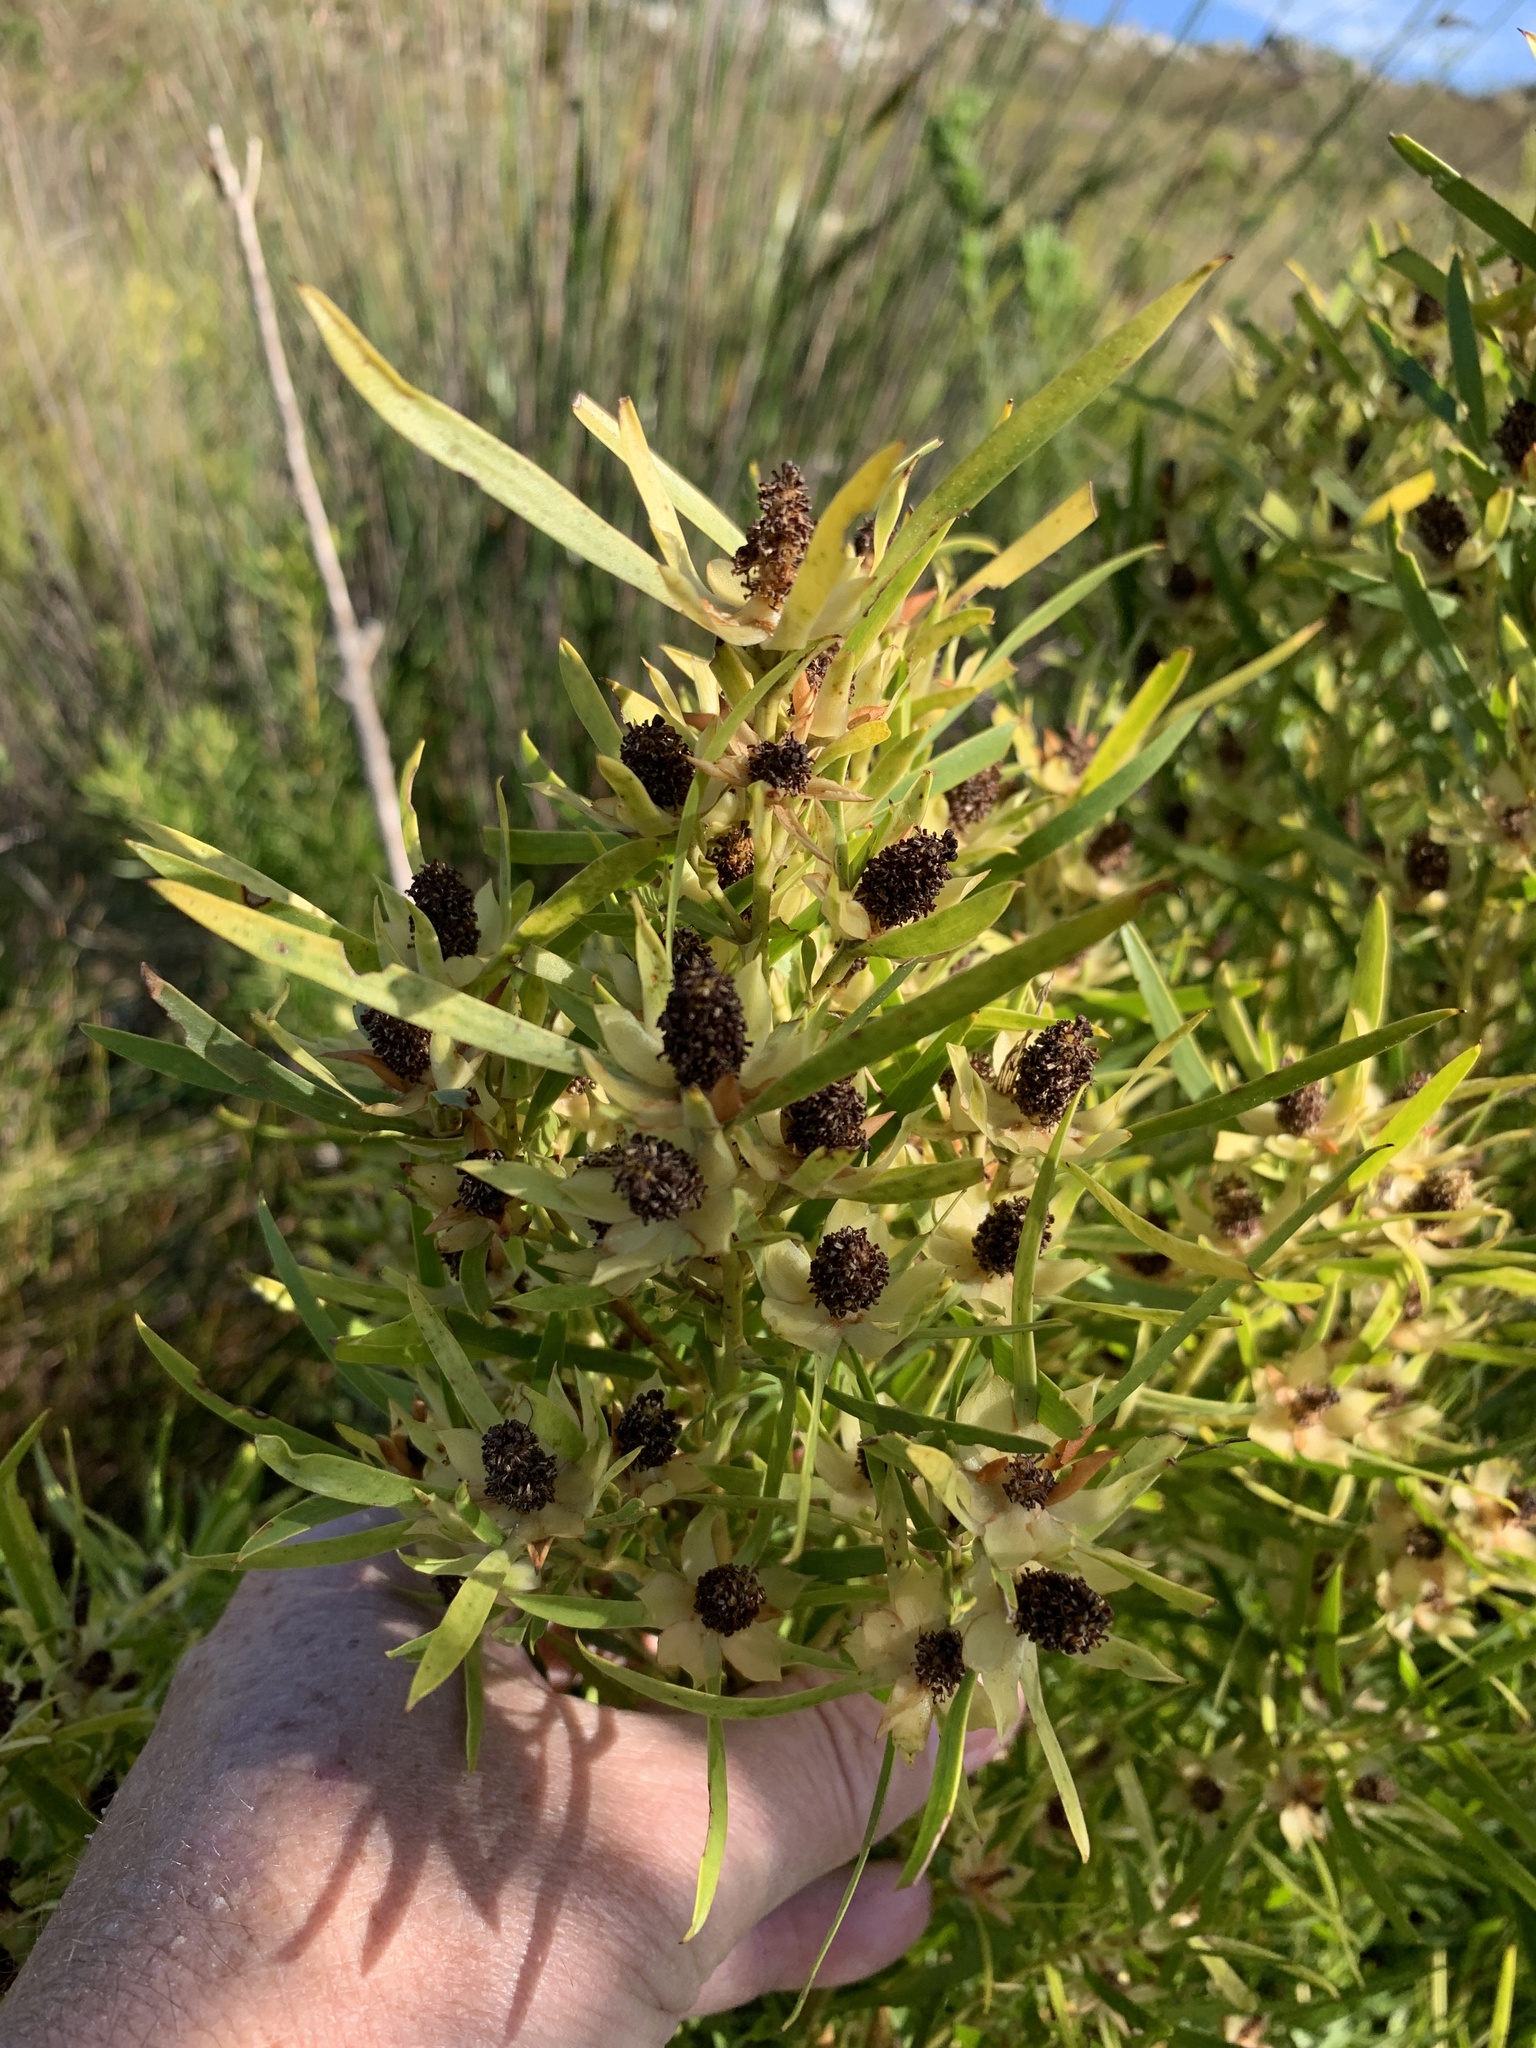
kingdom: Plantae
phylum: Tracheophyta
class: Magnoliopsida
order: Proteales
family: Proteaceae
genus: Leucadendron
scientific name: Leucadendron salicifolium
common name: Common stream conebush
